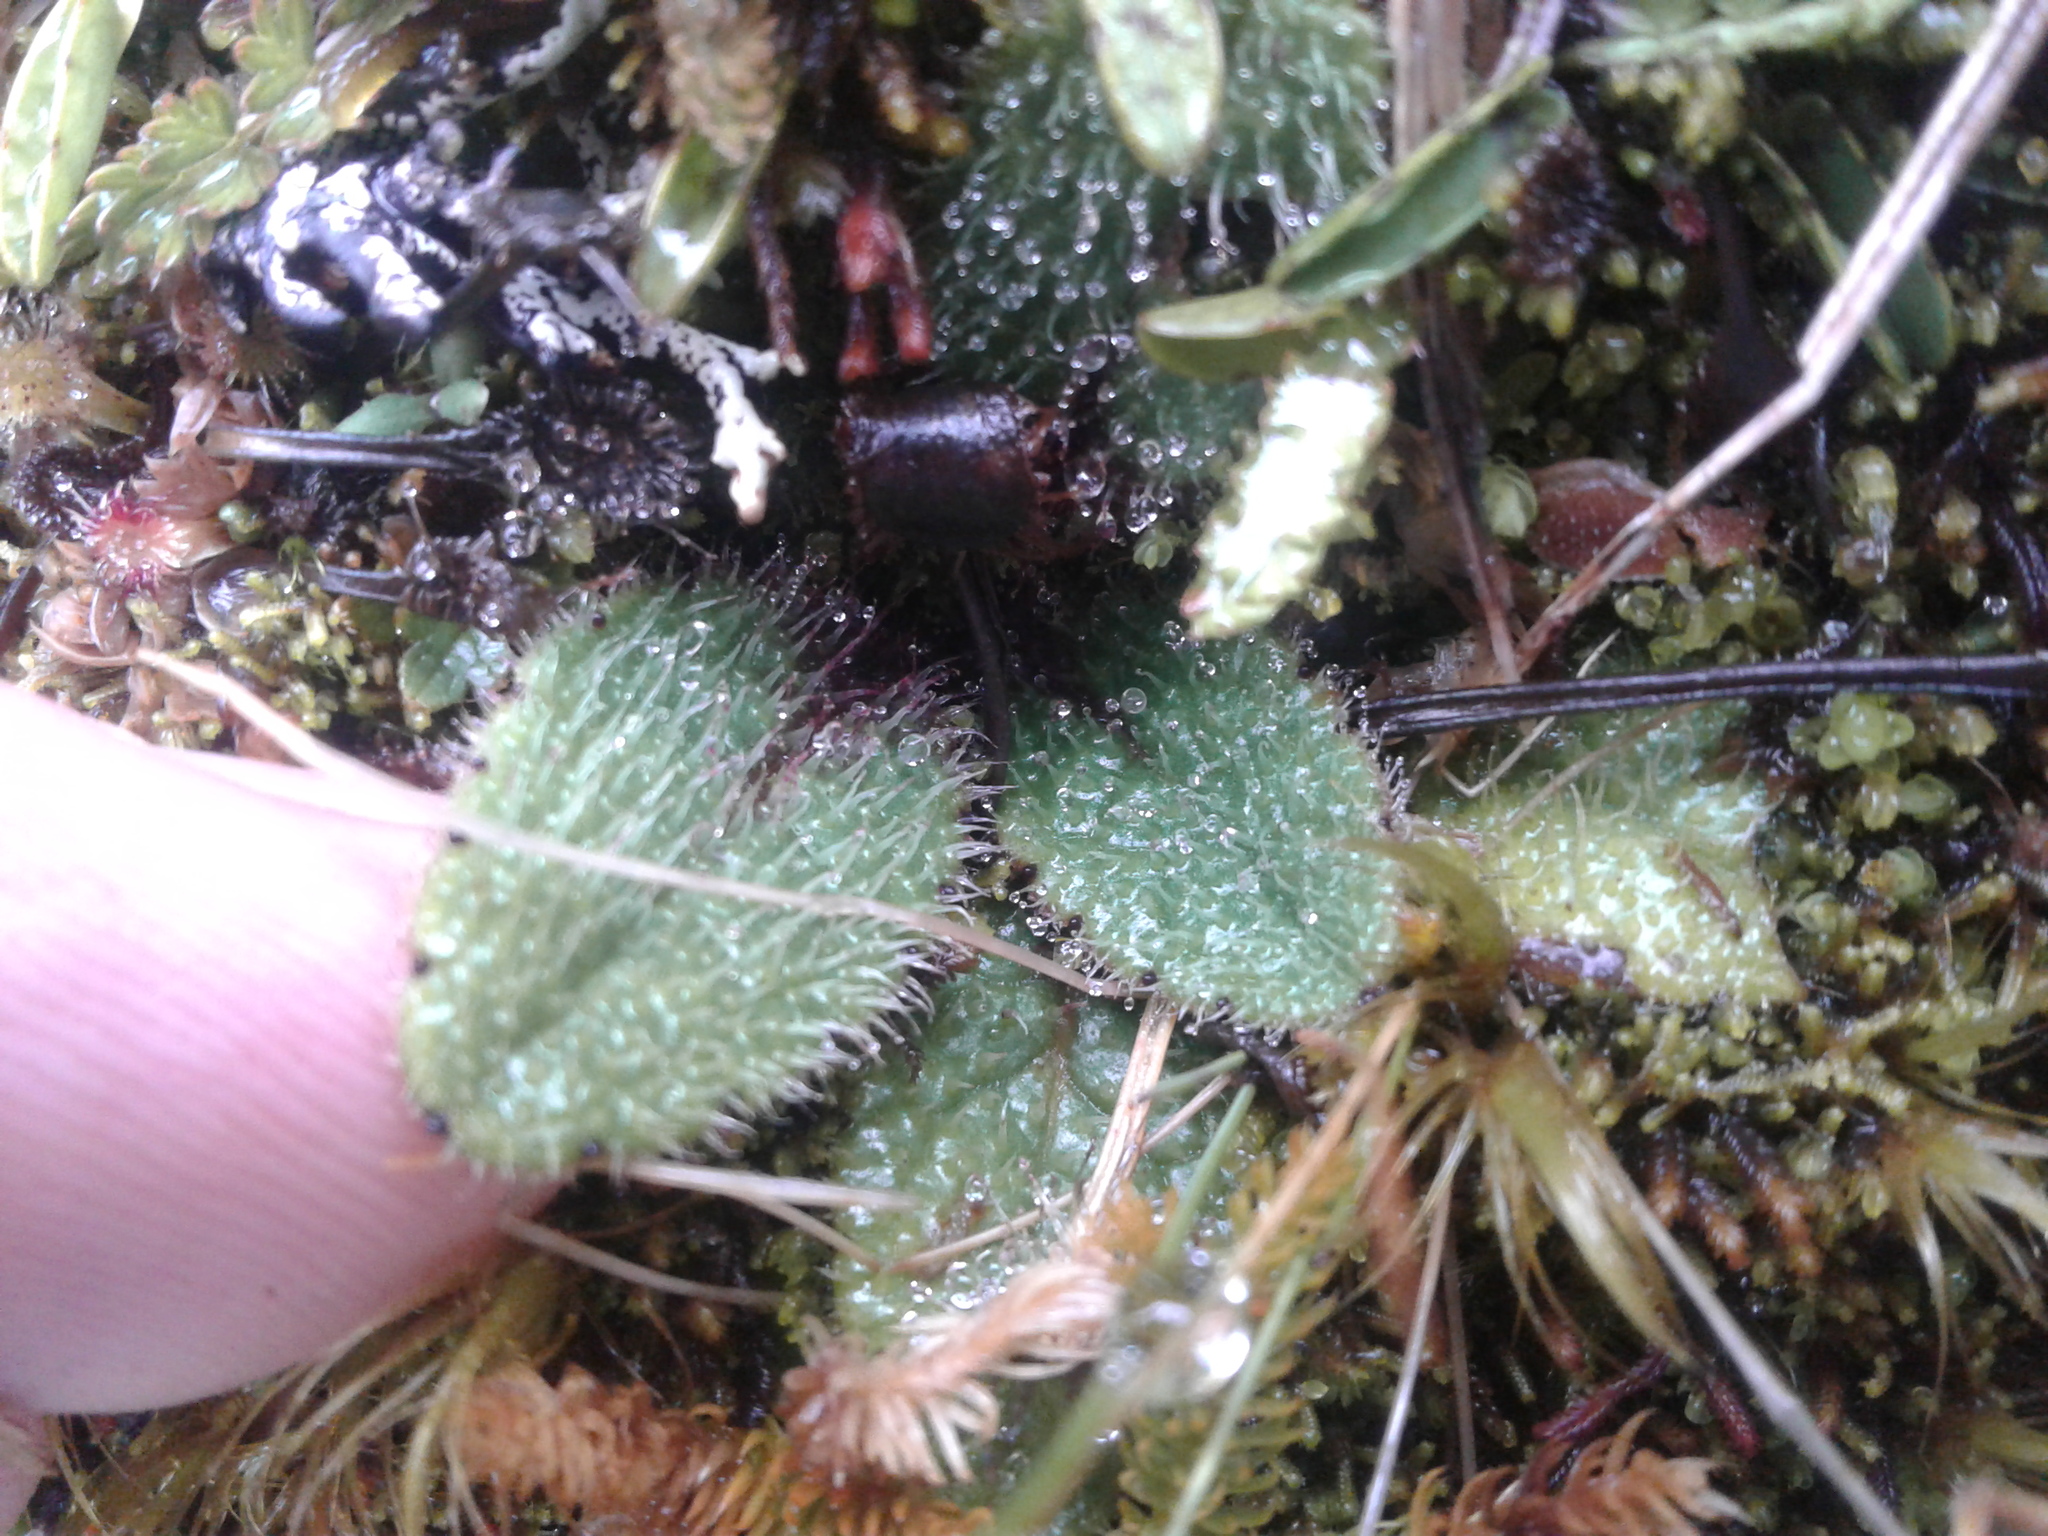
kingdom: Plantae
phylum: Tracheophyta
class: Magnoliopsida
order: Asterales
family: Asteraceae
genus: Brachyglottis
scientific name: Brachyglottis bellidioides
